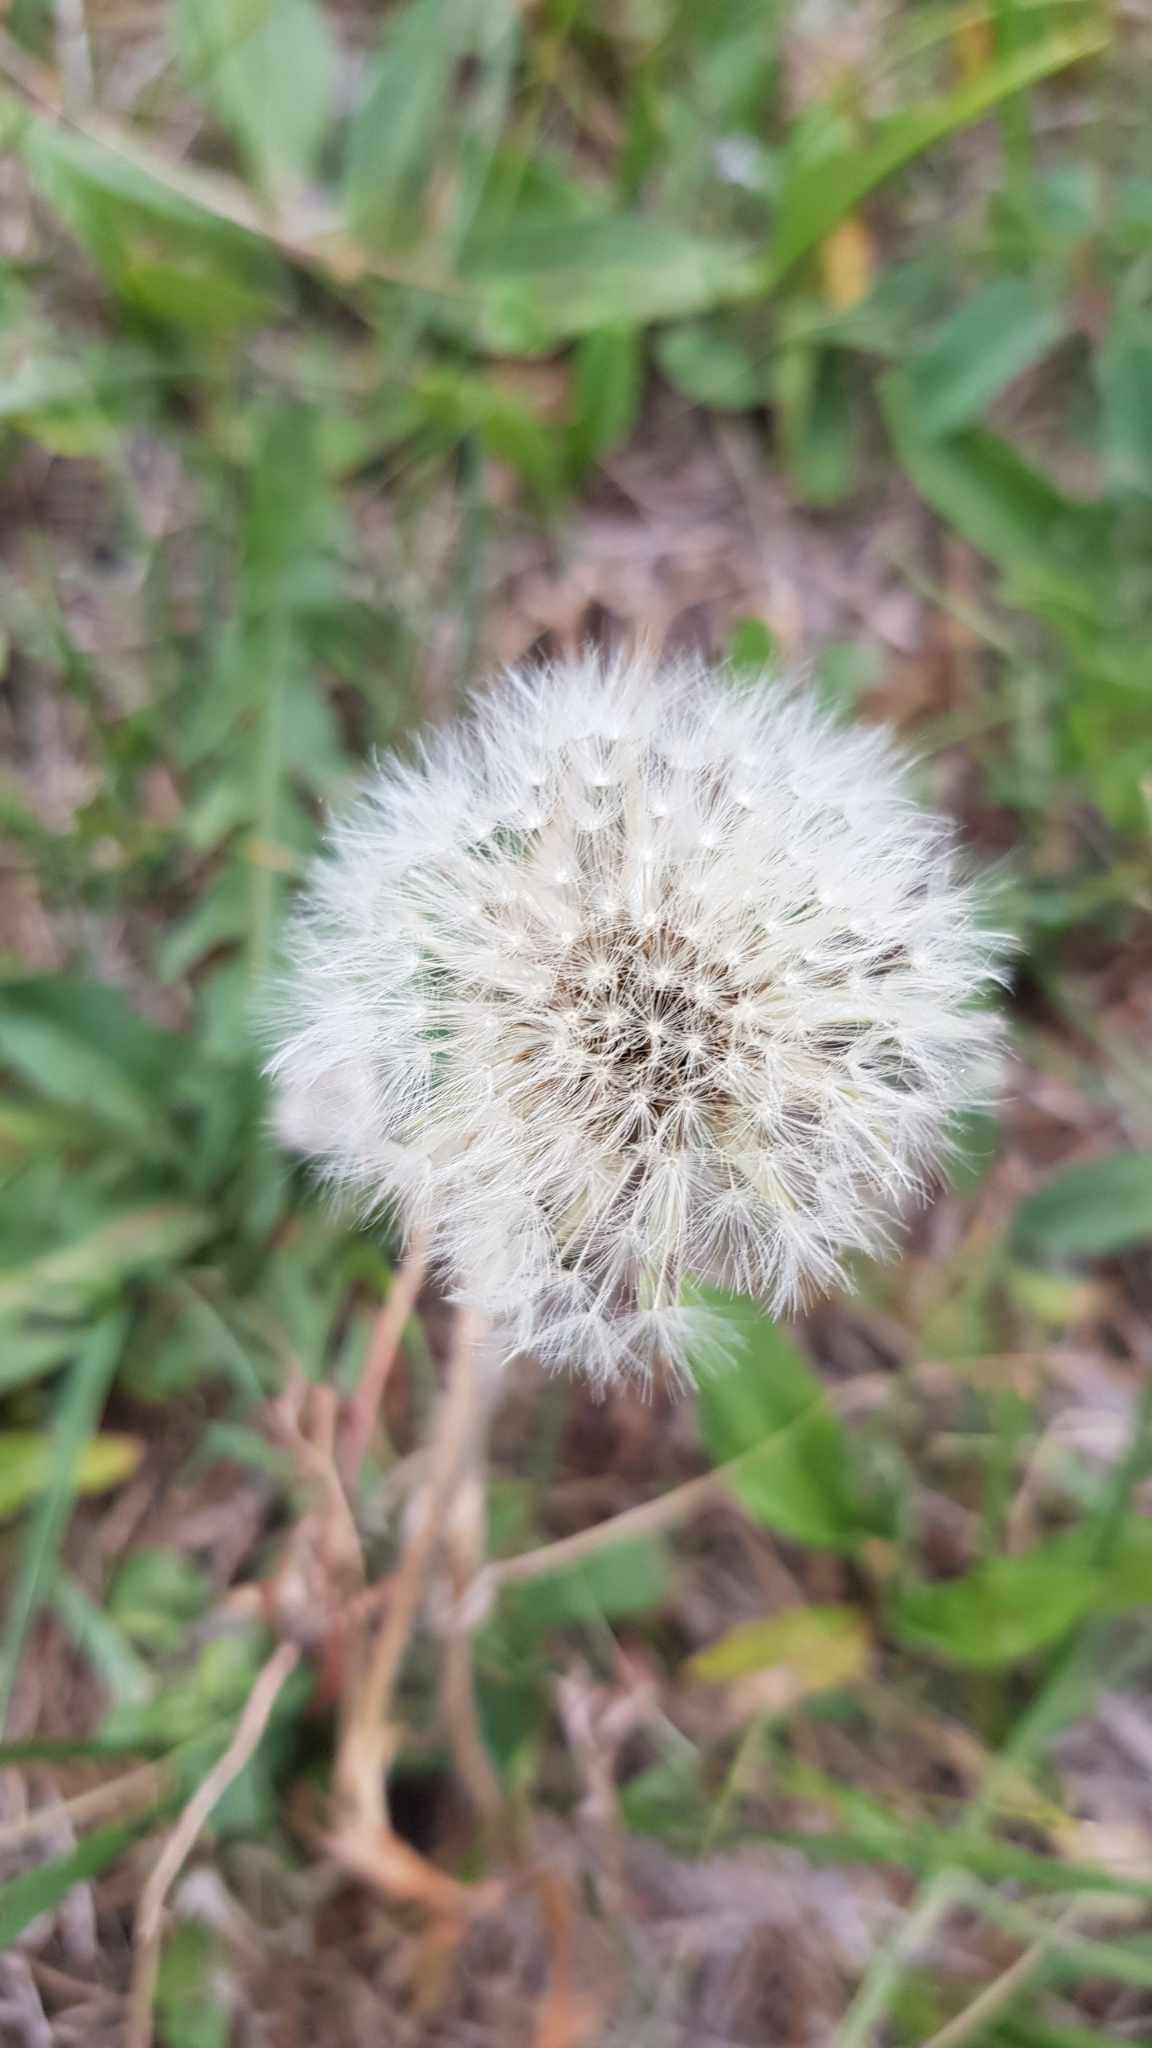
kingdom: Plantae
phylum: Tracheophyta
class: Magnoliopsida
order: Asterales
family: Asteraceae
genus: Taraxacum
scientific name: Taraxacum officinale
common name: Common dandelion
